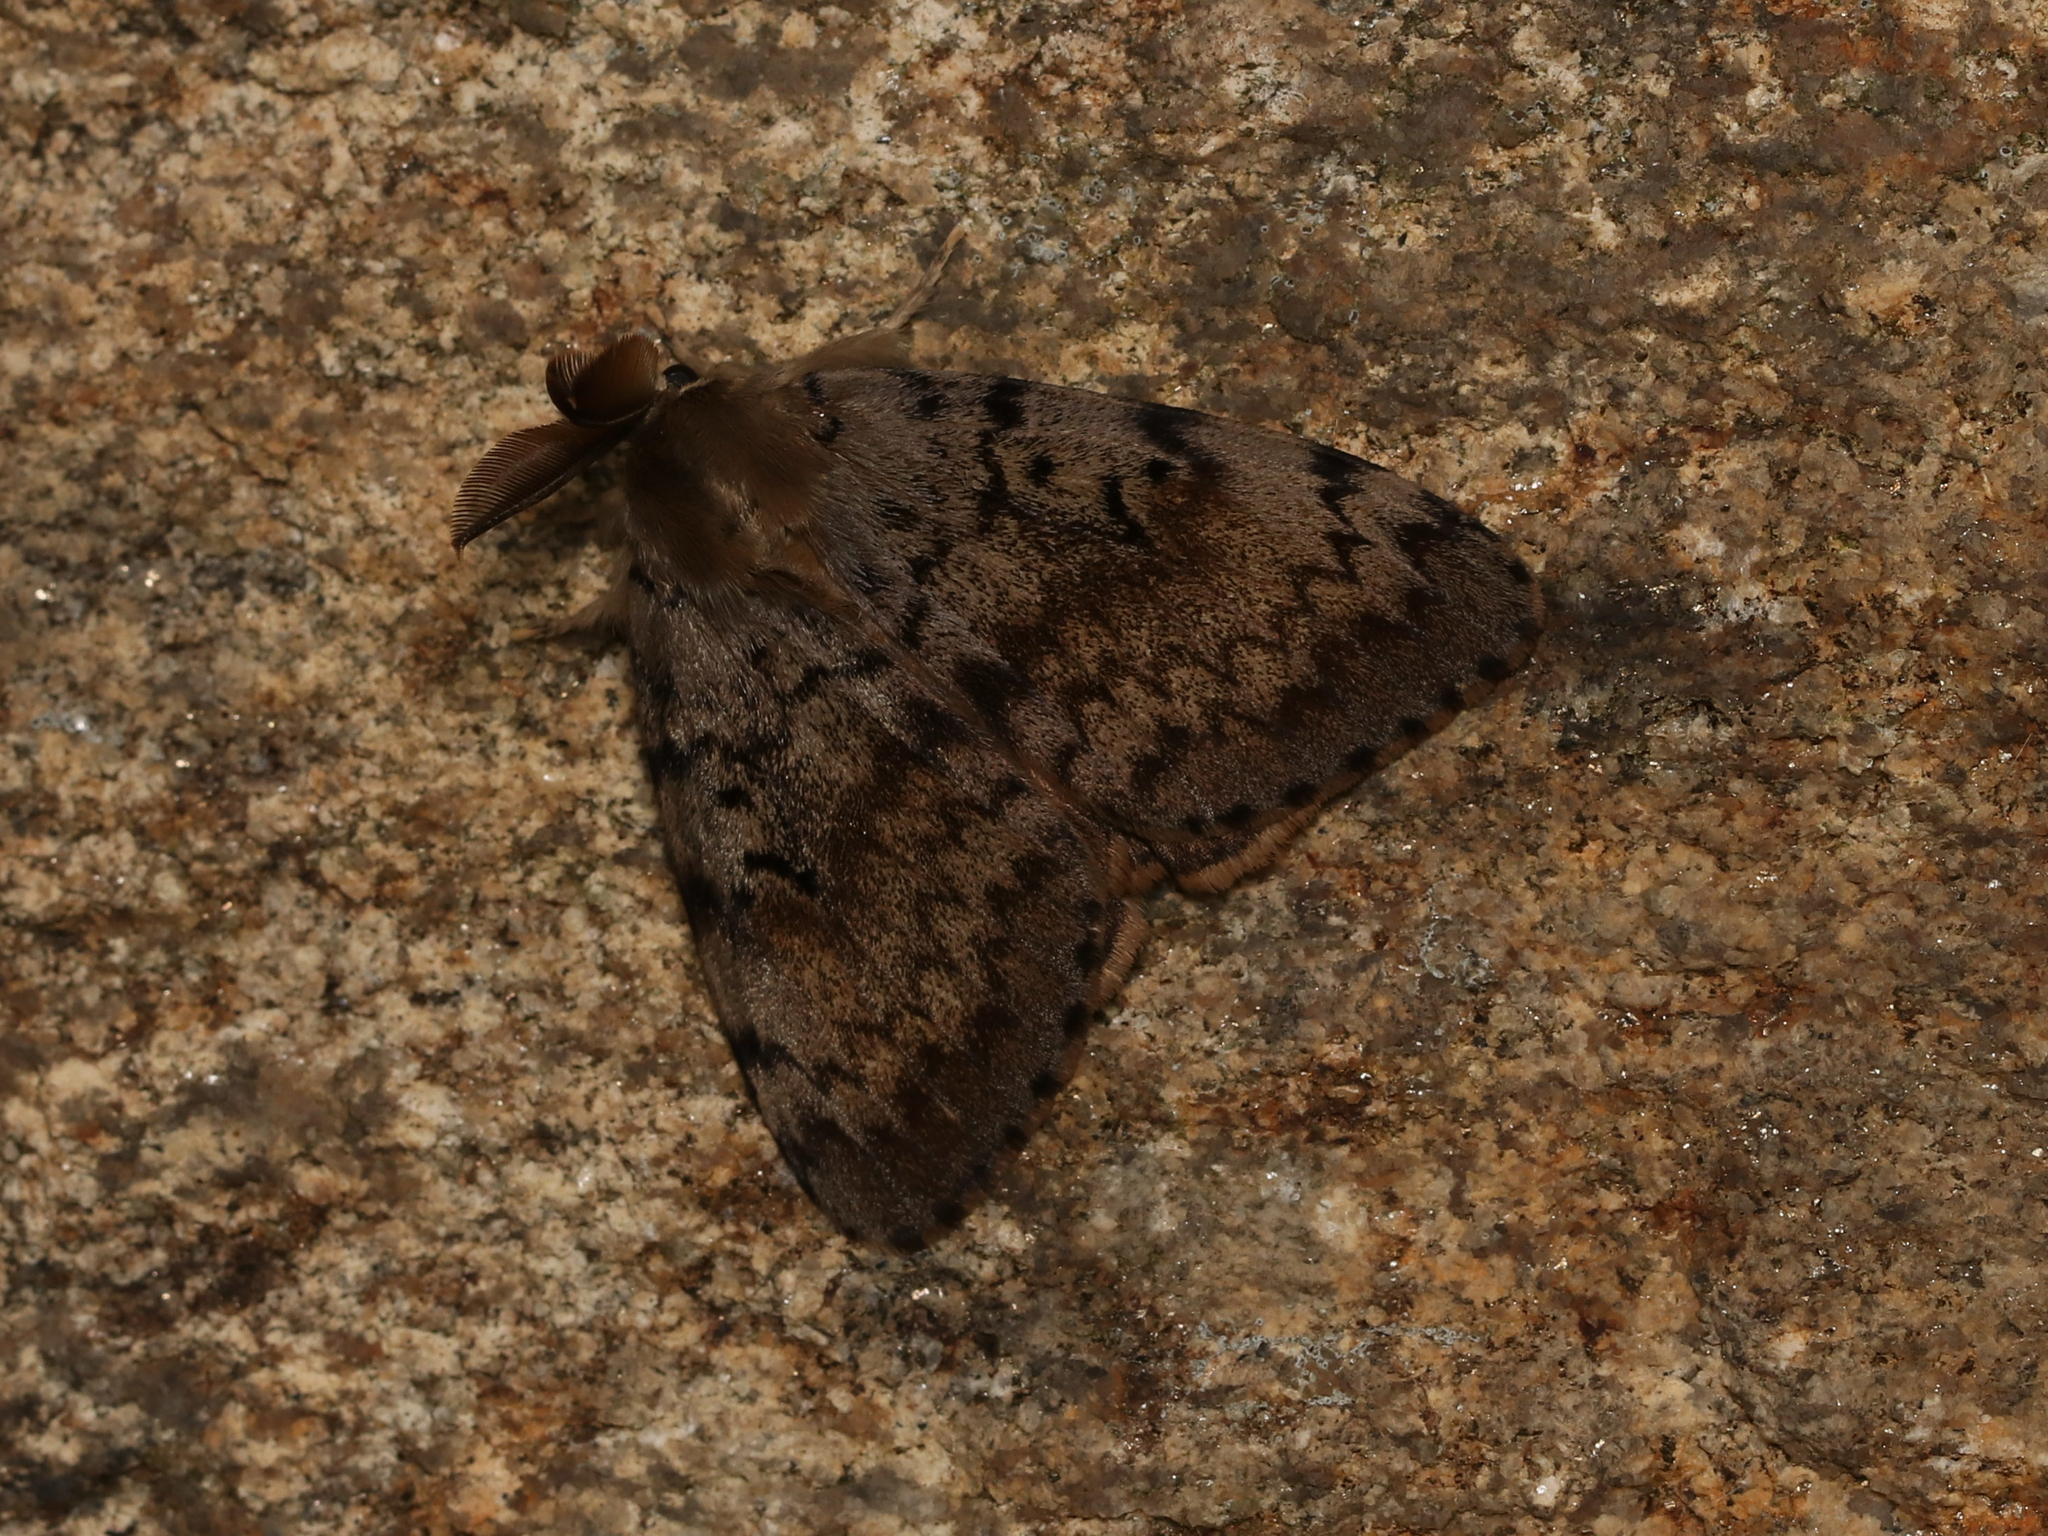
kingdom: Animalia
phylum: Arthropoda
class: Insecta
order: Lepidoptera
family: Erebidae
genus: Lymantria
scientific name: Lymantria dispar
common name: Gypsy moth
